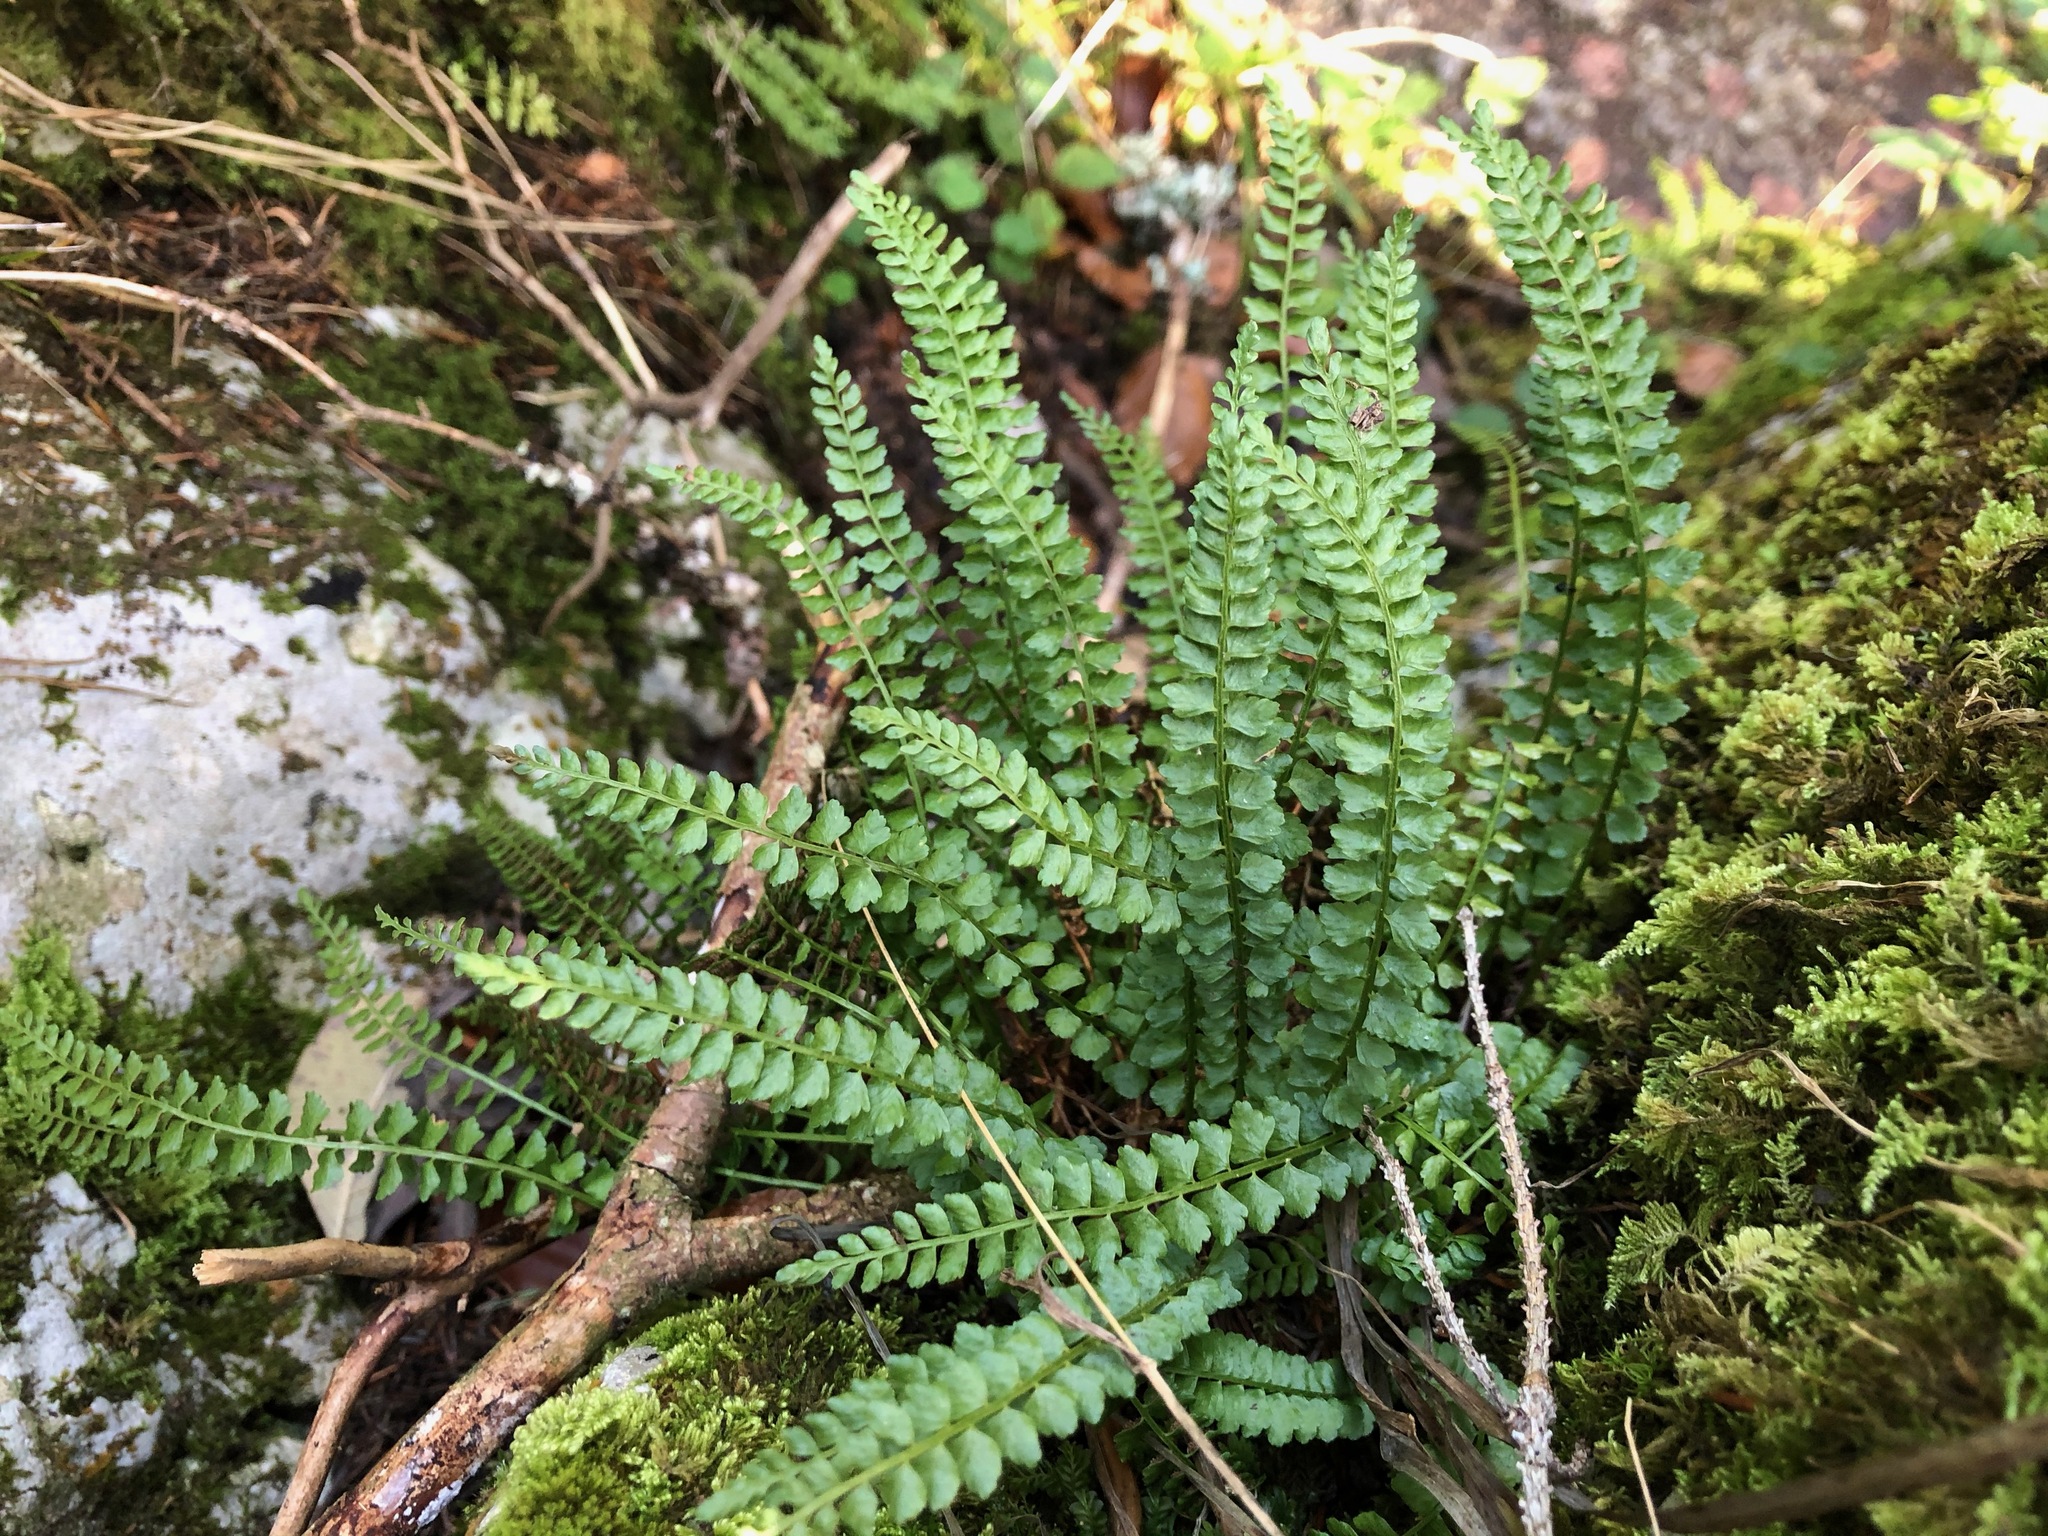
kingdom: Plantae
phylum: Tracheophyta
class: Polypodiopsida
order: Polypodiales
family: Aspleniaceae
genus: Asplenium
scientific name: Asplenium viride
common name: Green spleenwort
